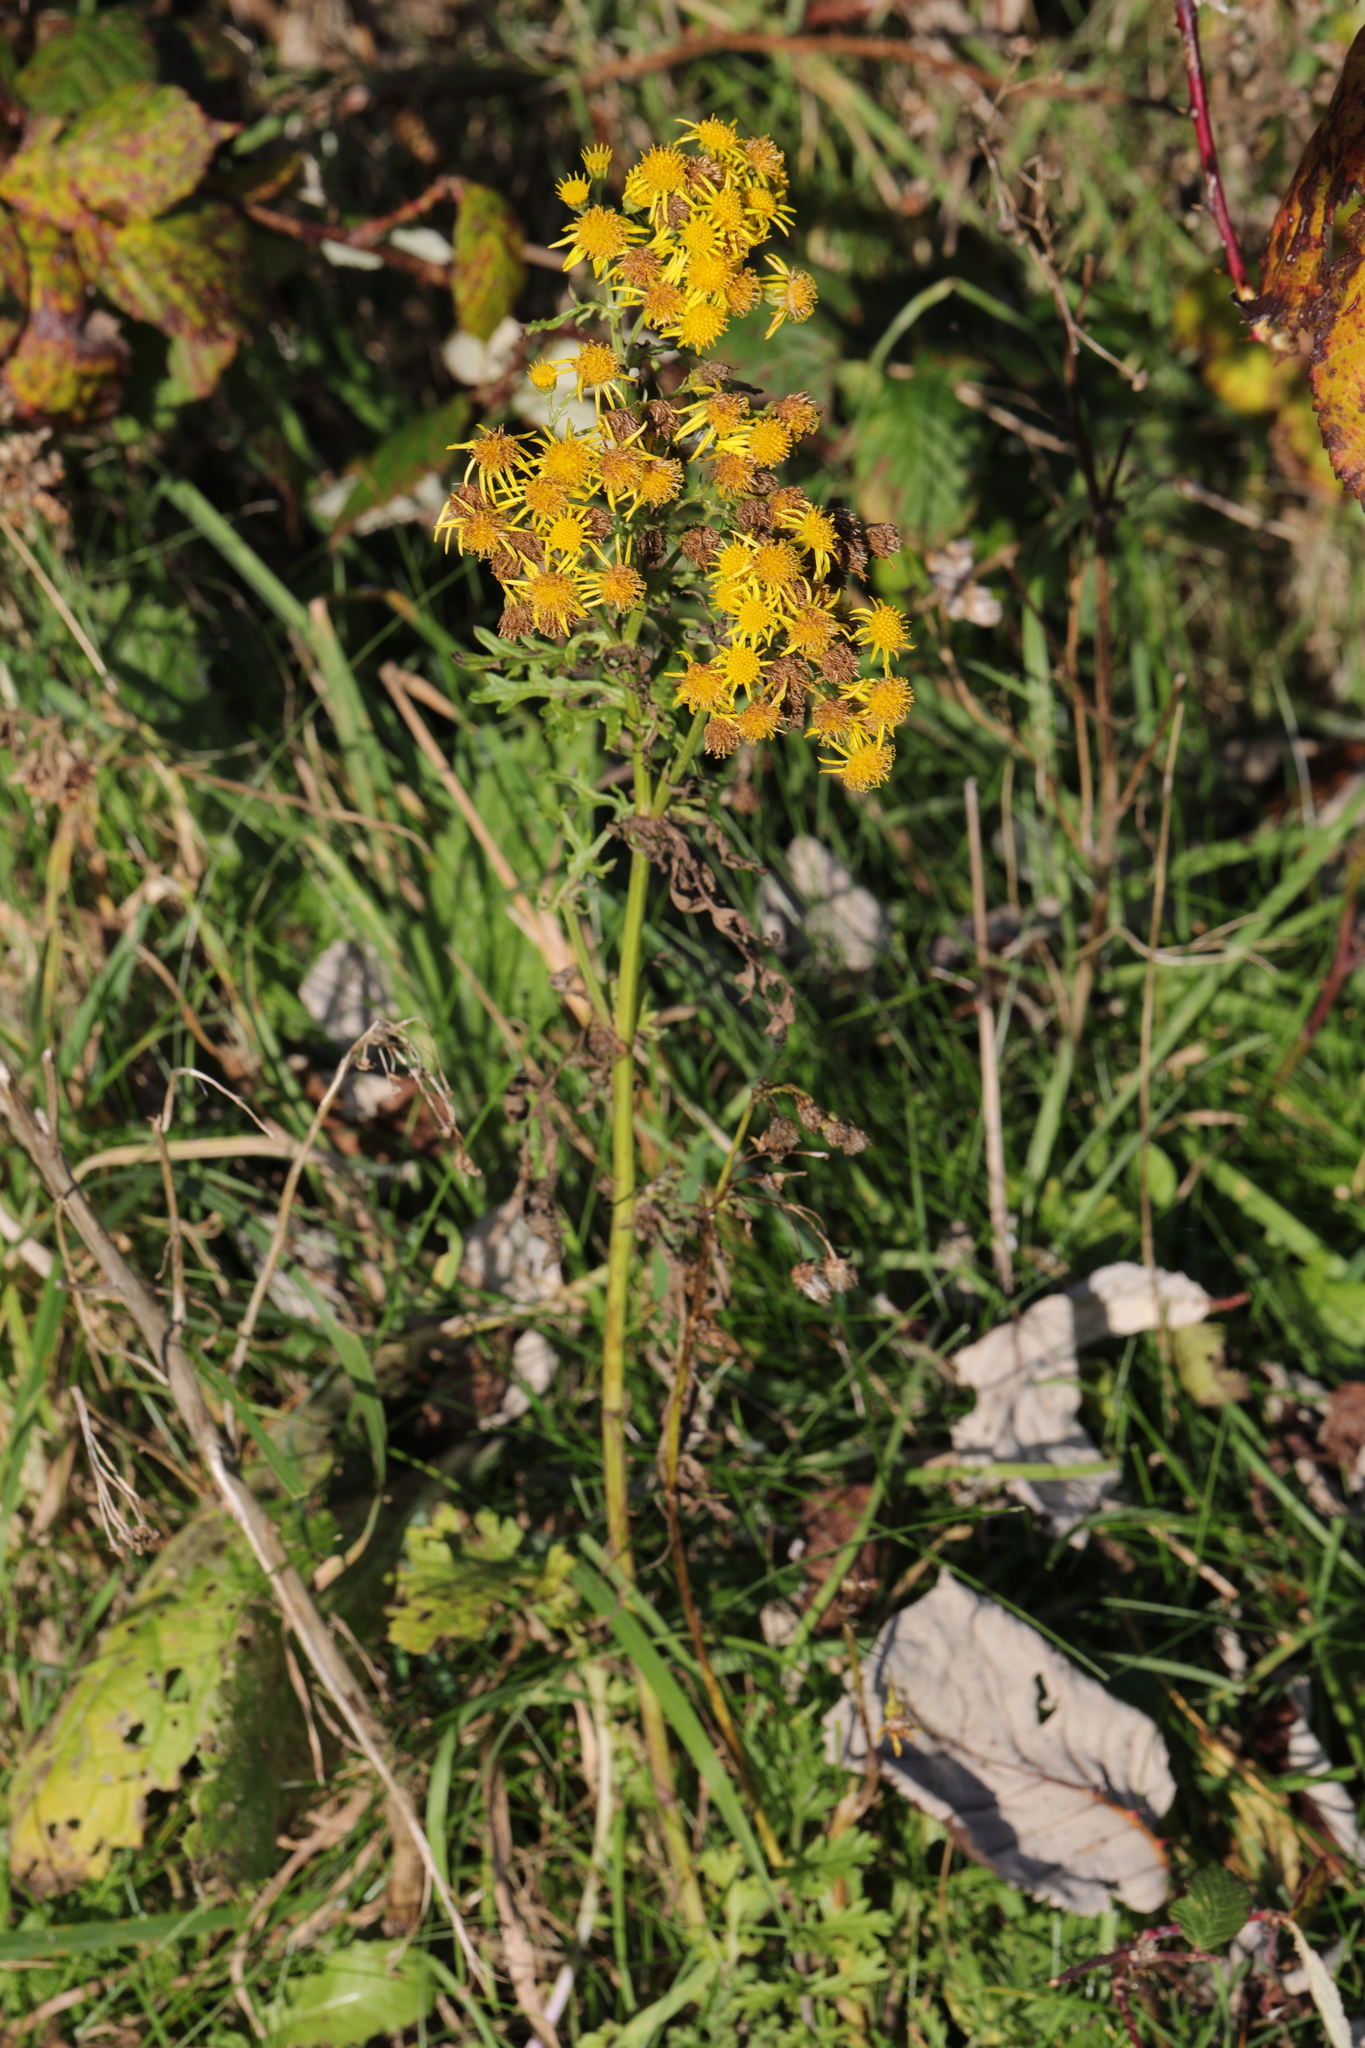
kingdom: Plantae
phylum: Tracheophyta
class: Magnoliopsida
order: Asterales
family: Asteraceae
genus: Jacobaea
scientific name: Jacobaea vulgaris
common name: Stinking willie
